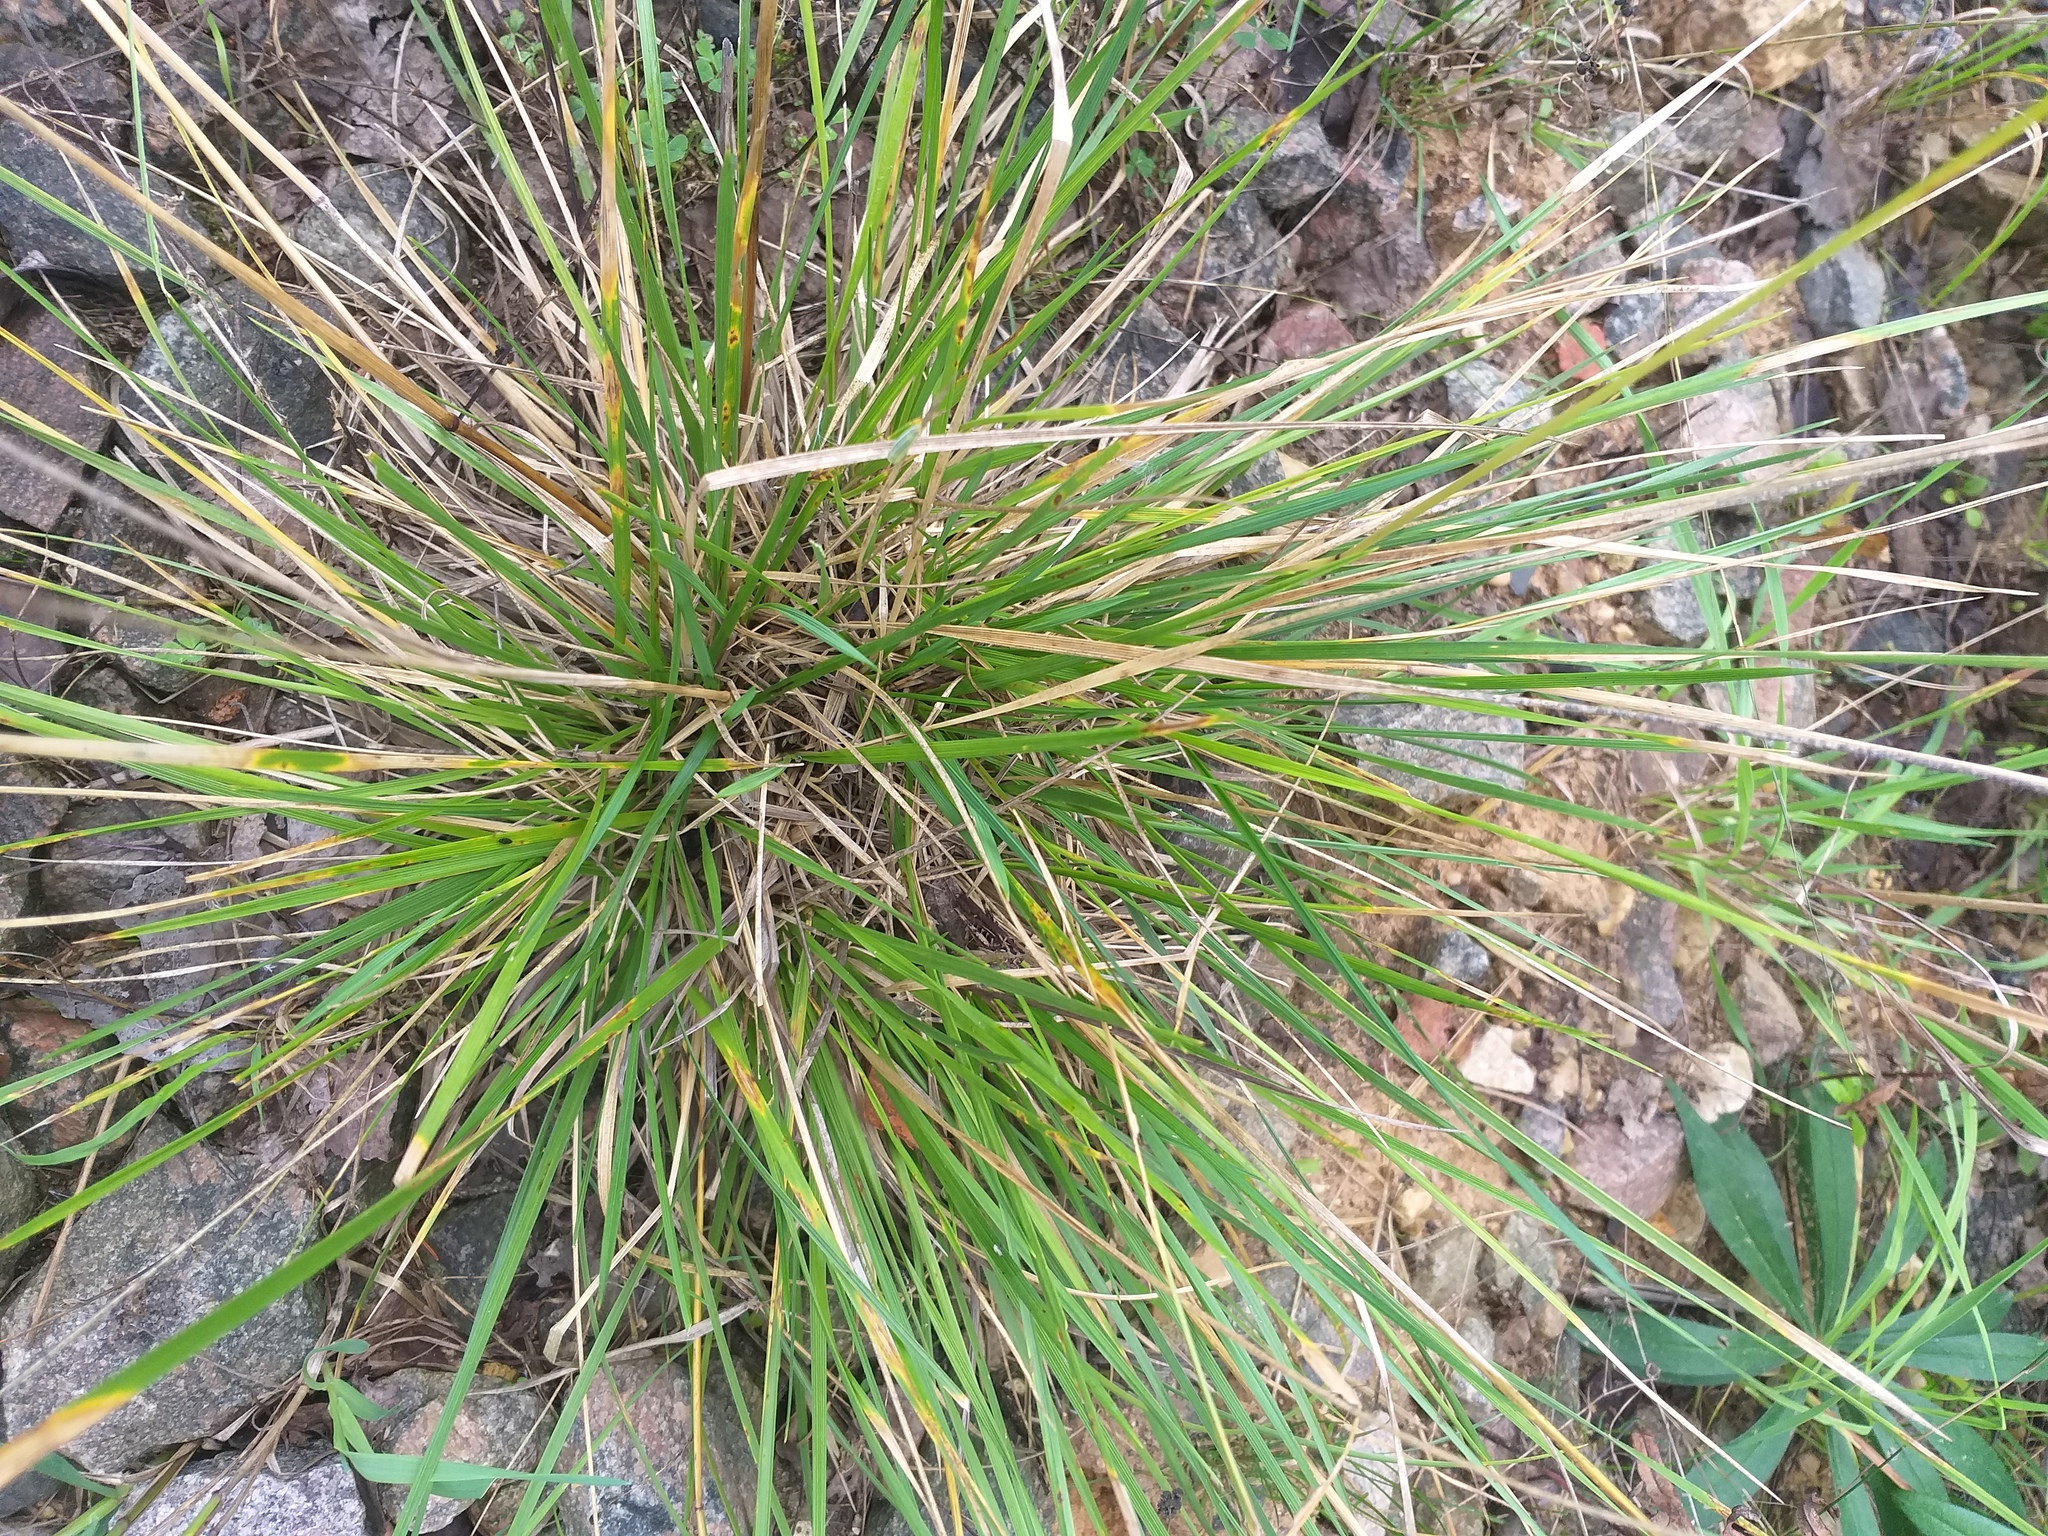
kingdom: Plantae
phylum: Tracheophyta
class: Liliopsida
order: Poales
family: Poaceae
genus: Deschampsia
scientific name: Deschampsia cespitosa
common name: Tufted hair-grass
